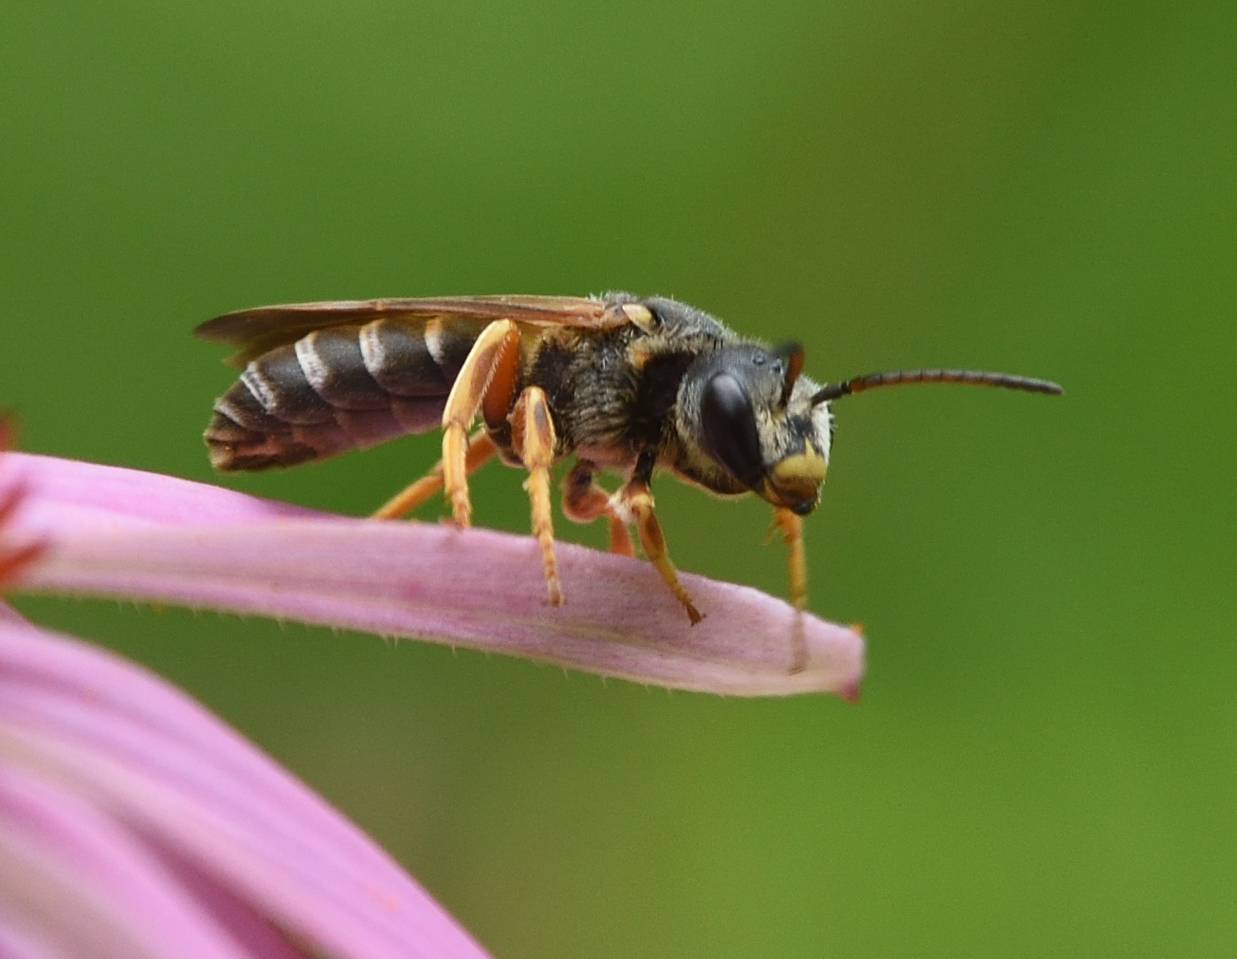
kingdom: Animalia
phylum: Arthropoda
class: Insecta
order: Hymenoptera
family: Halictidae
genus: Halictus
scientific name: Halictus parallelus
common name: Parallel-striped sweat bee
